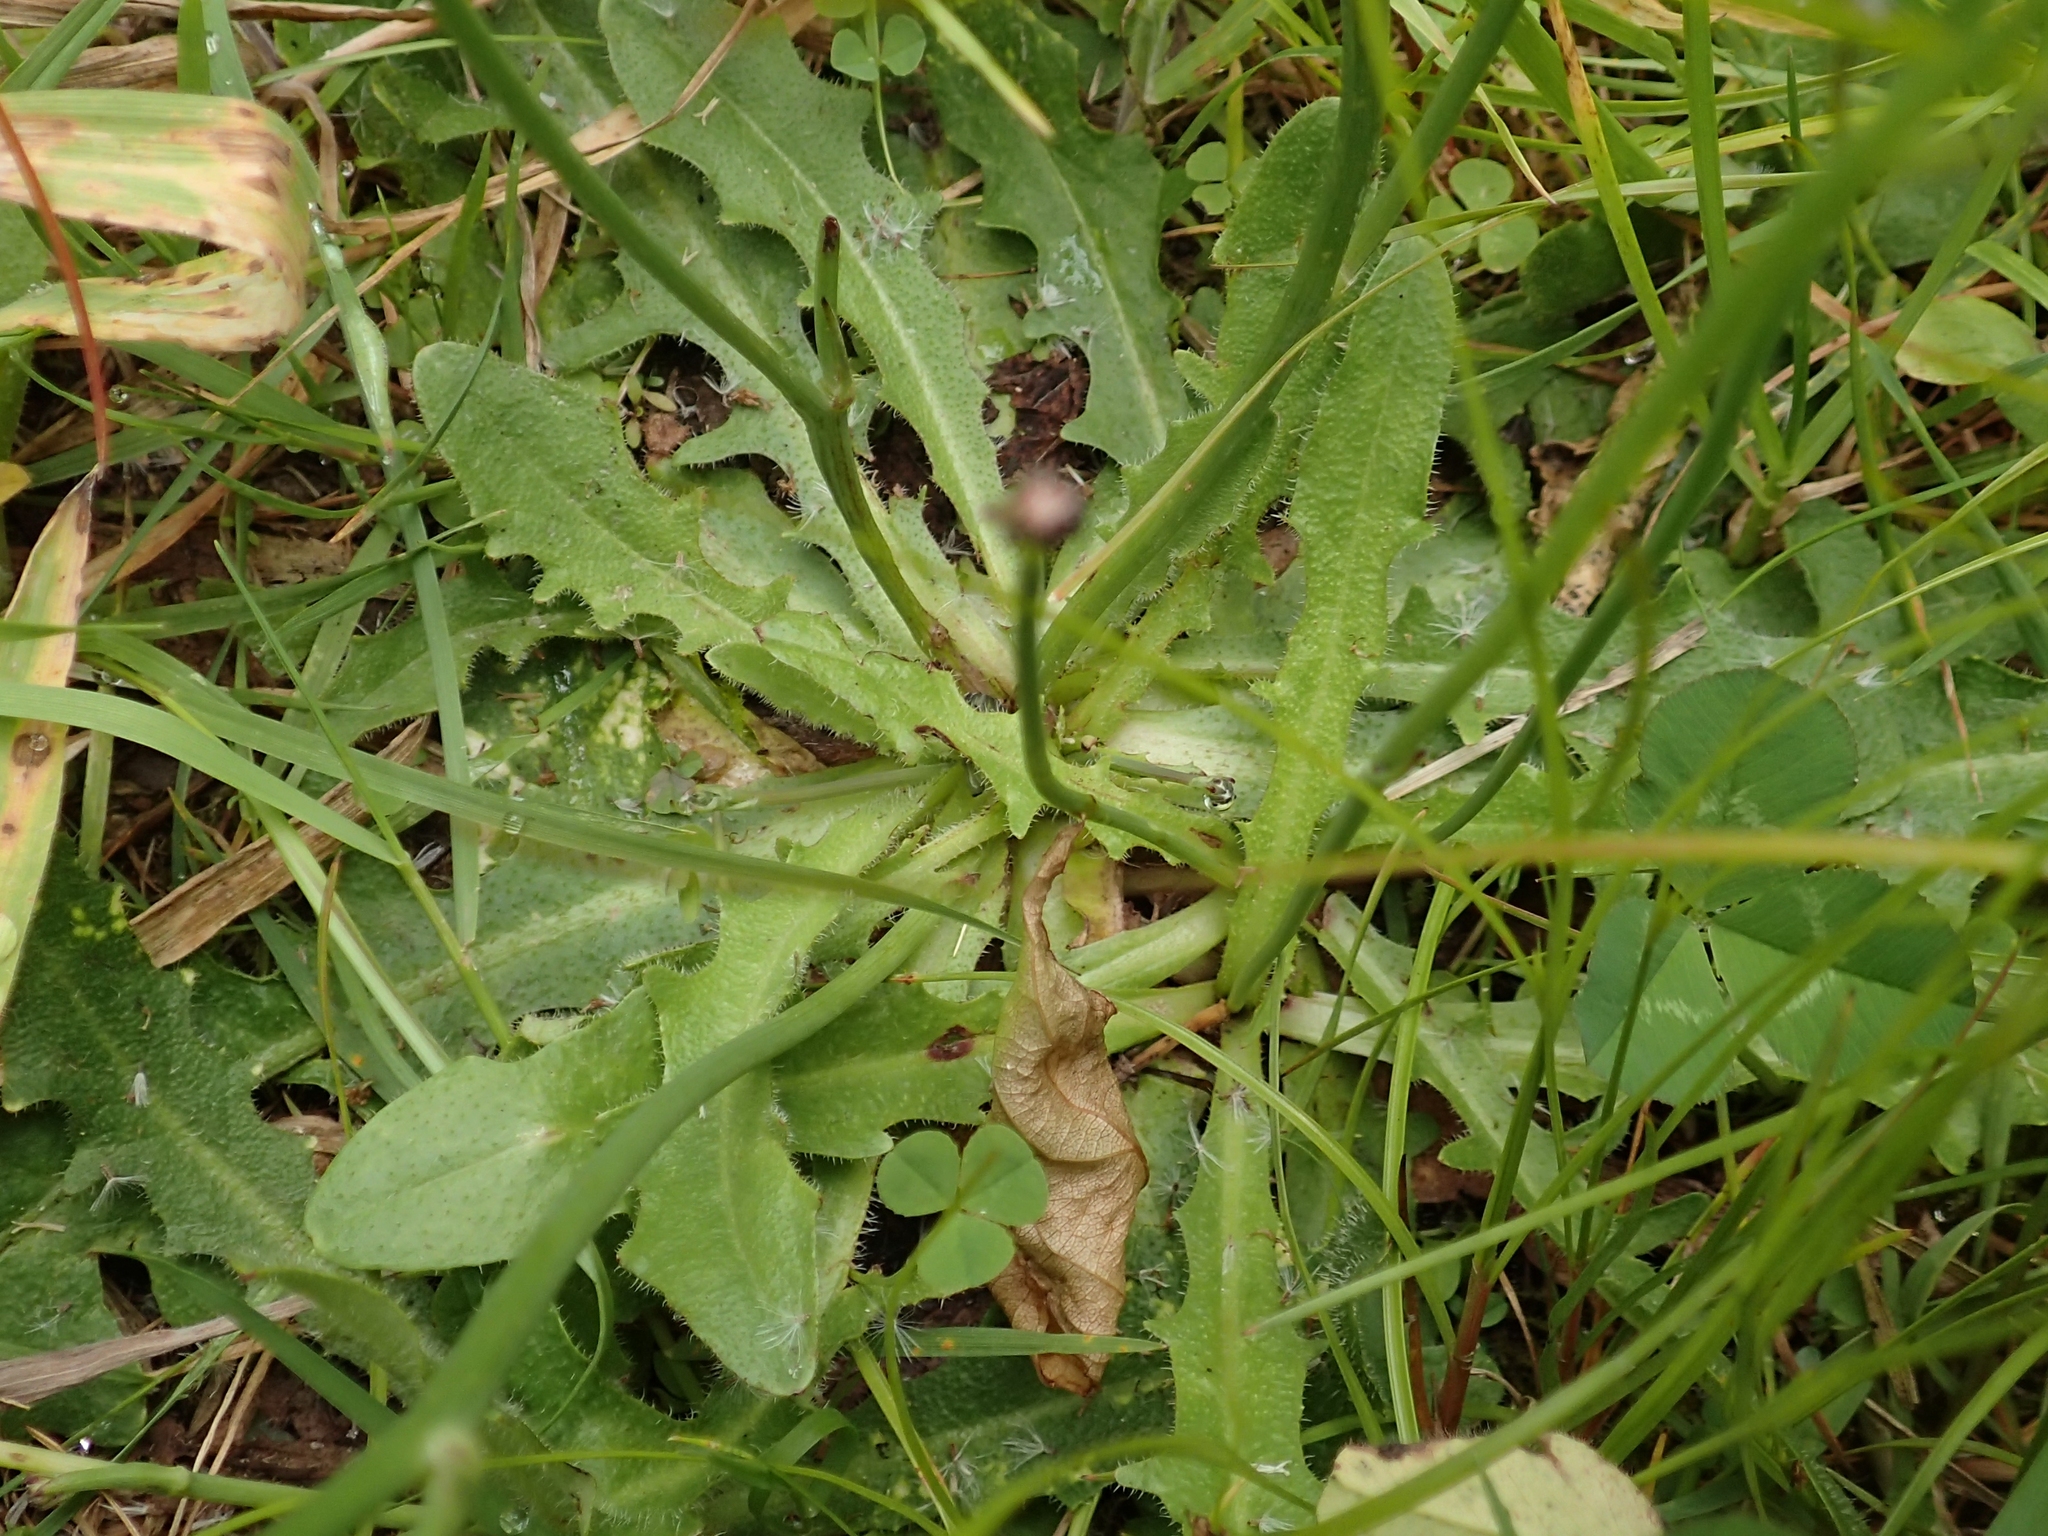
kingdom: Plantae
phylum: Tracheophyta
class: Magnoliopsida
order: Asterales
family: Asteraceae
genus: Hypochaeris
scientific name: Hypochaeris radicata
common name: Flatweed
